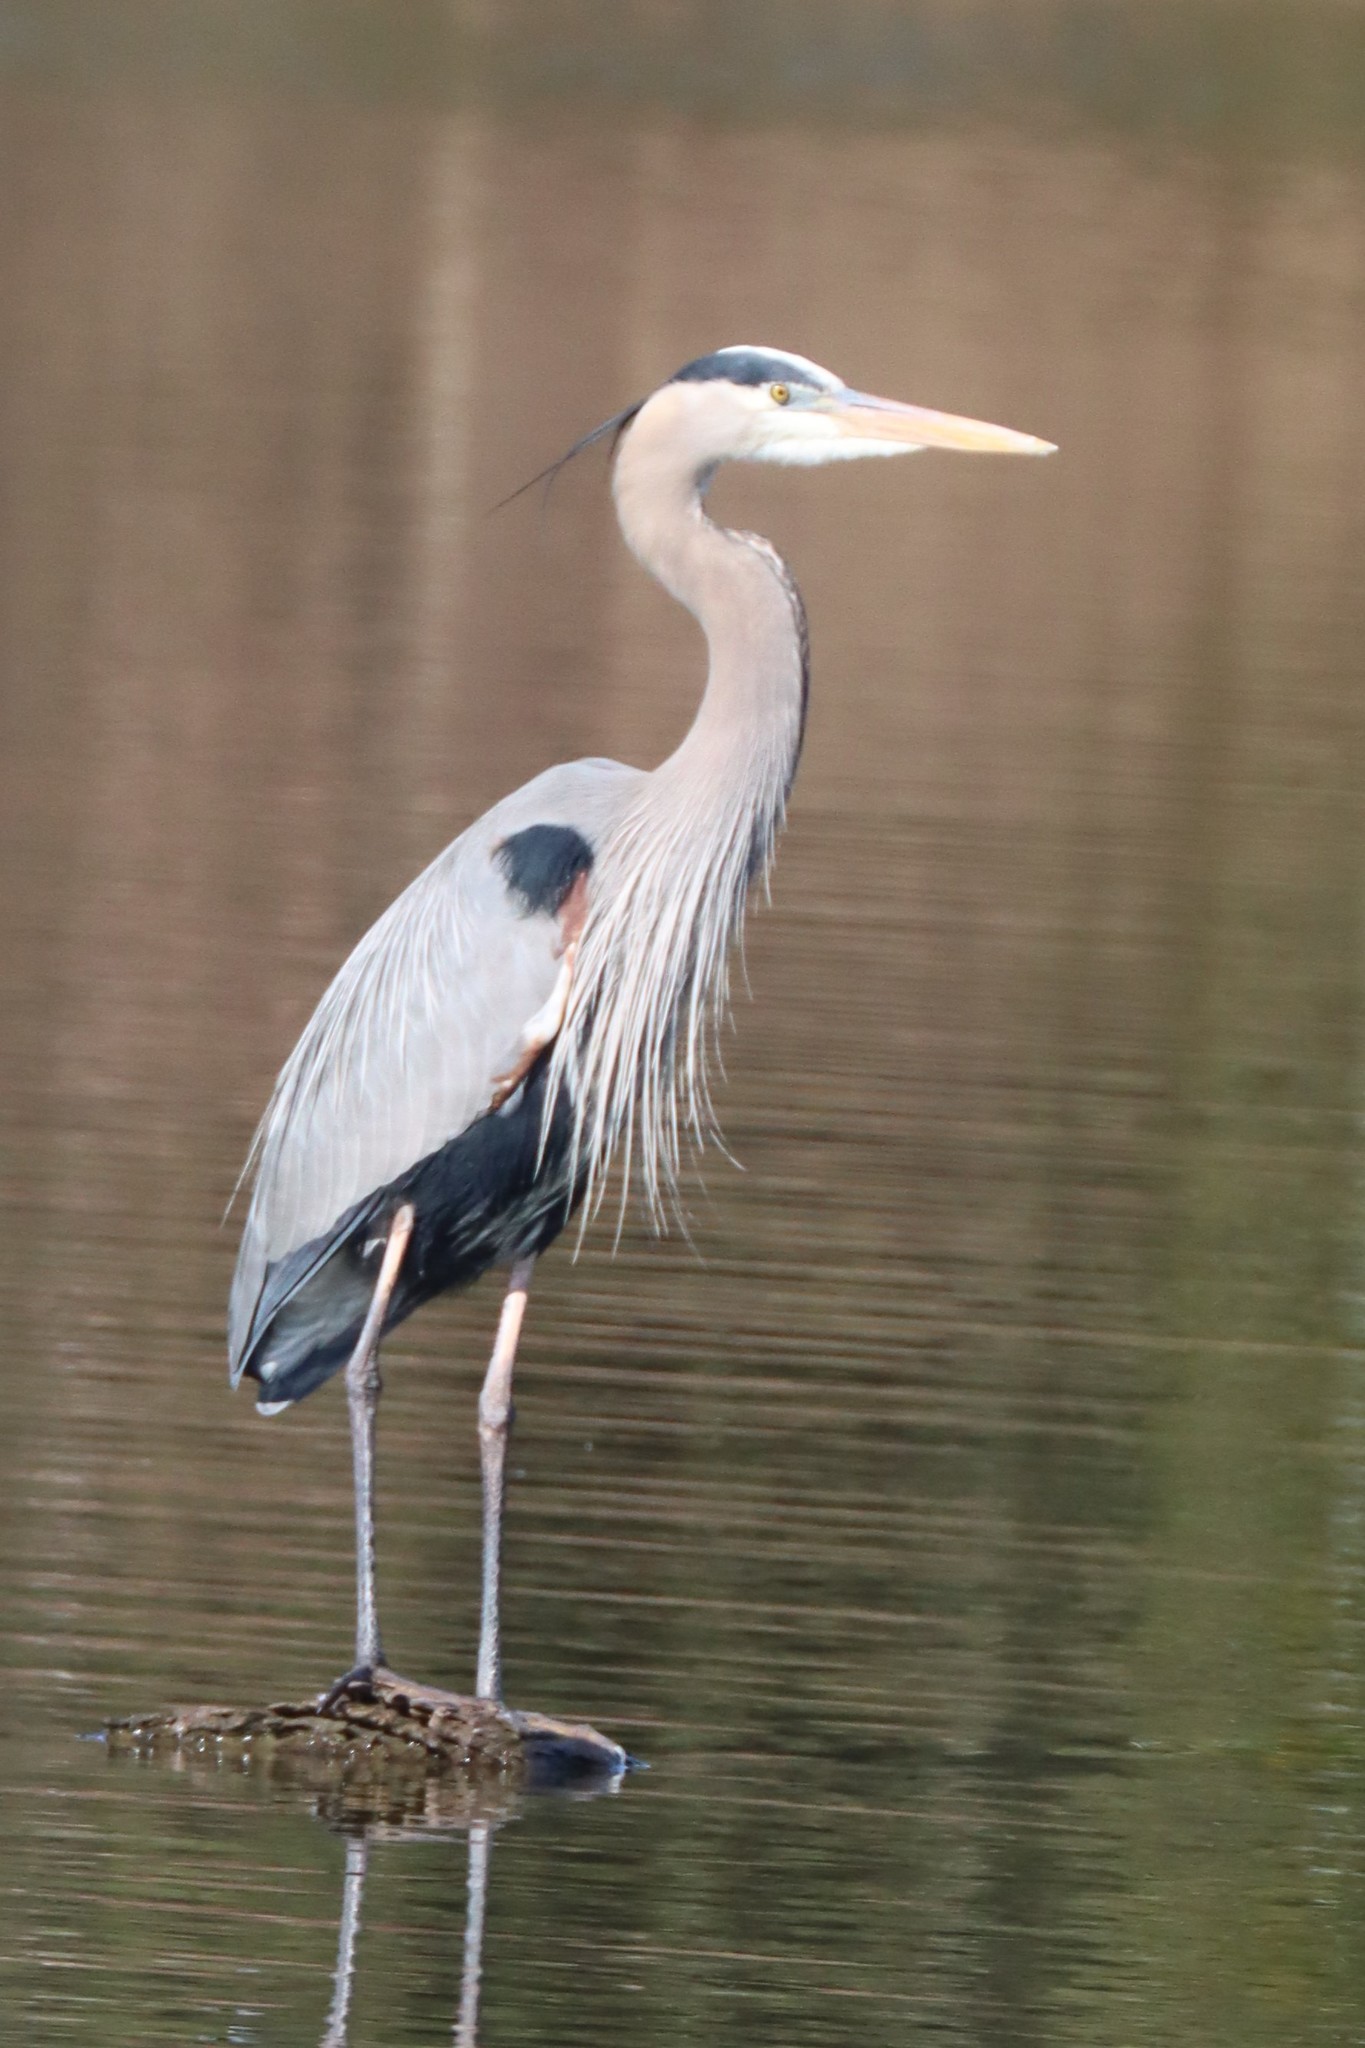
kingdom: Animalia
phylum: Chordata
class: Aves
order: Pelecaniformes
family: Ardeidae
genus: Ardea
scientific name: Ardea herodias
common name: Great blue heron
